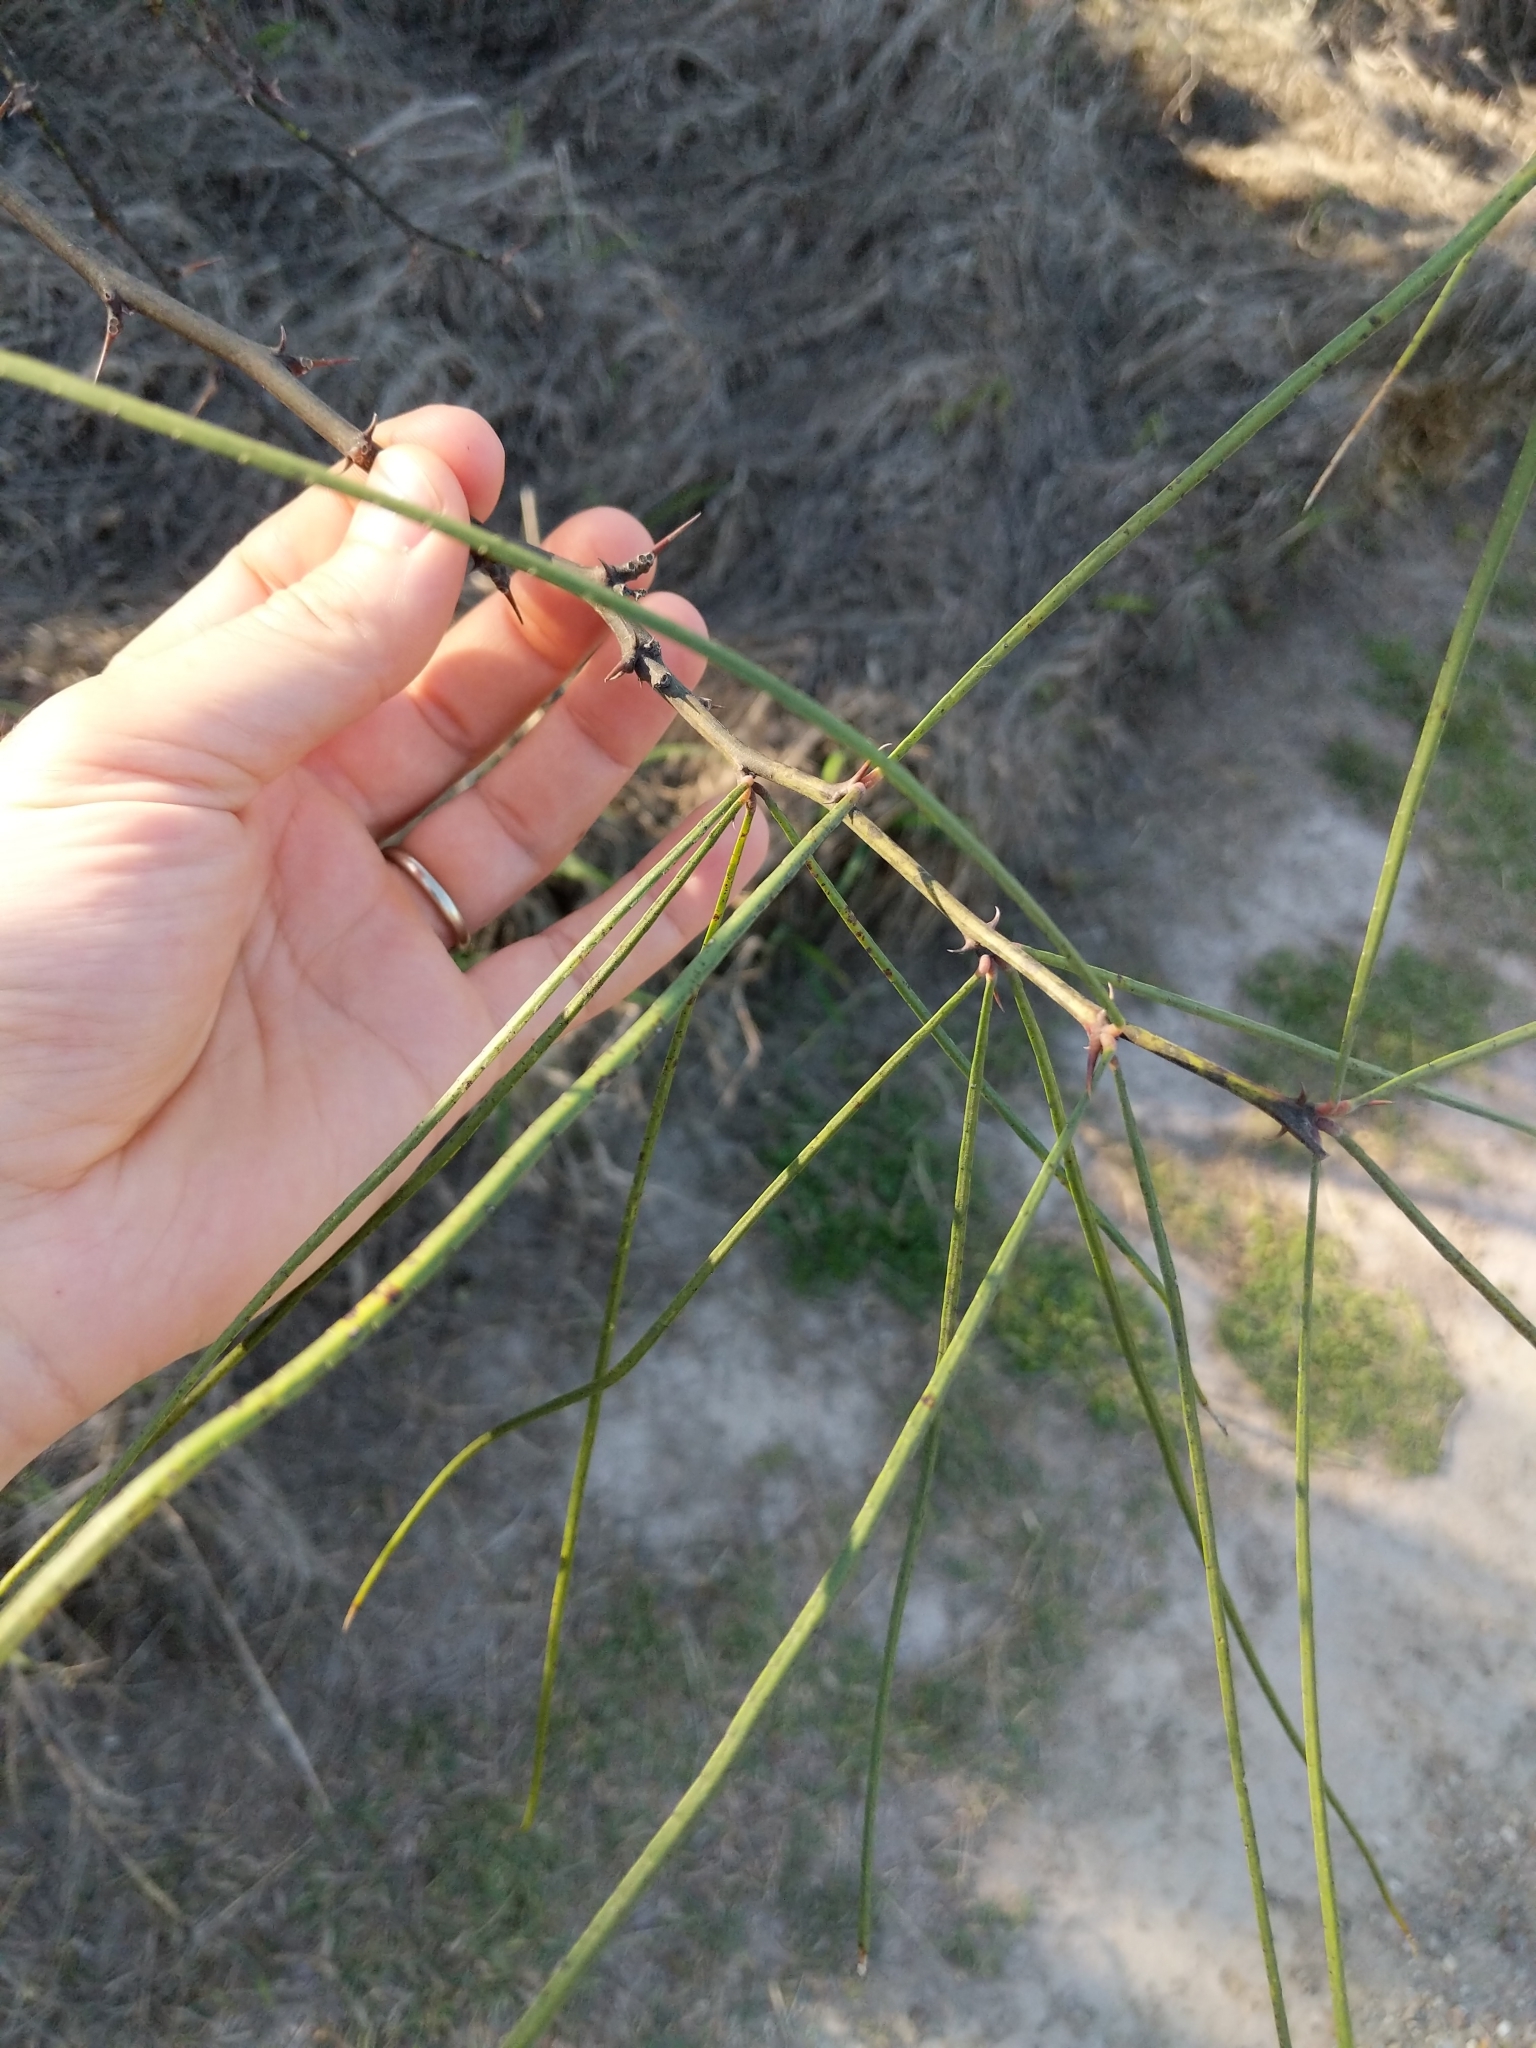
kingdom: Plantae
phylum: Tracheophyta
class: Magnoliopsida
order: Fabales
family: Fabaceae
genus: Parkinsonia
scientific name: Parkinsonia aculeata
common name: Jerusalem thorn
